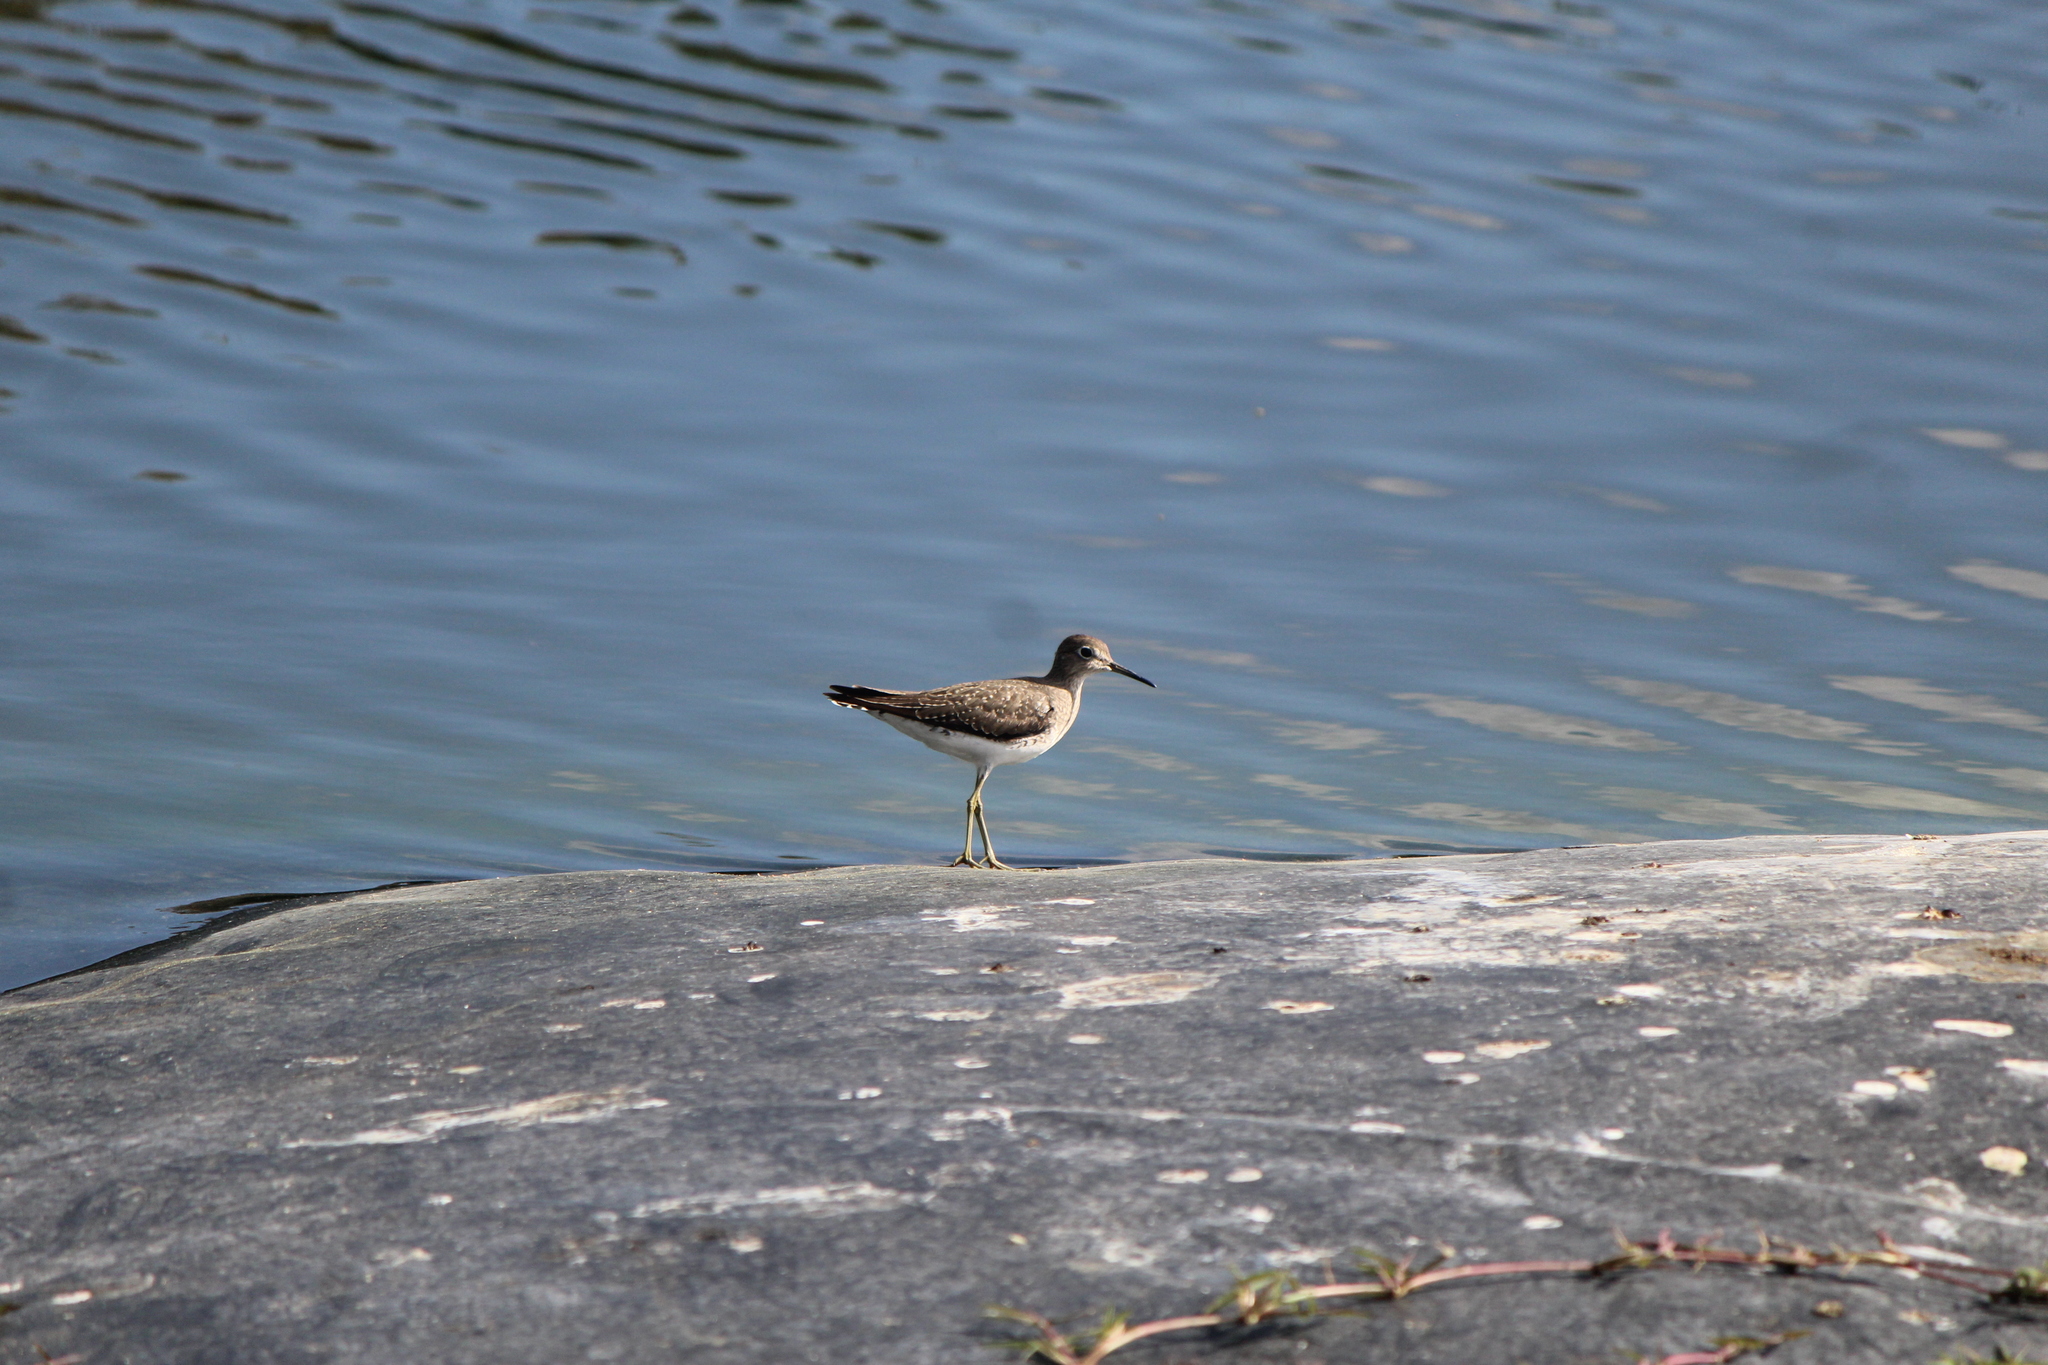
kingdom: Animalia
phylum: Chordata
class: Aves
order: Charadriiformes
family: Scolopacidae
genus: Tringa
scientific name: Tringa solitaria
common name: Solitary sandpiper
